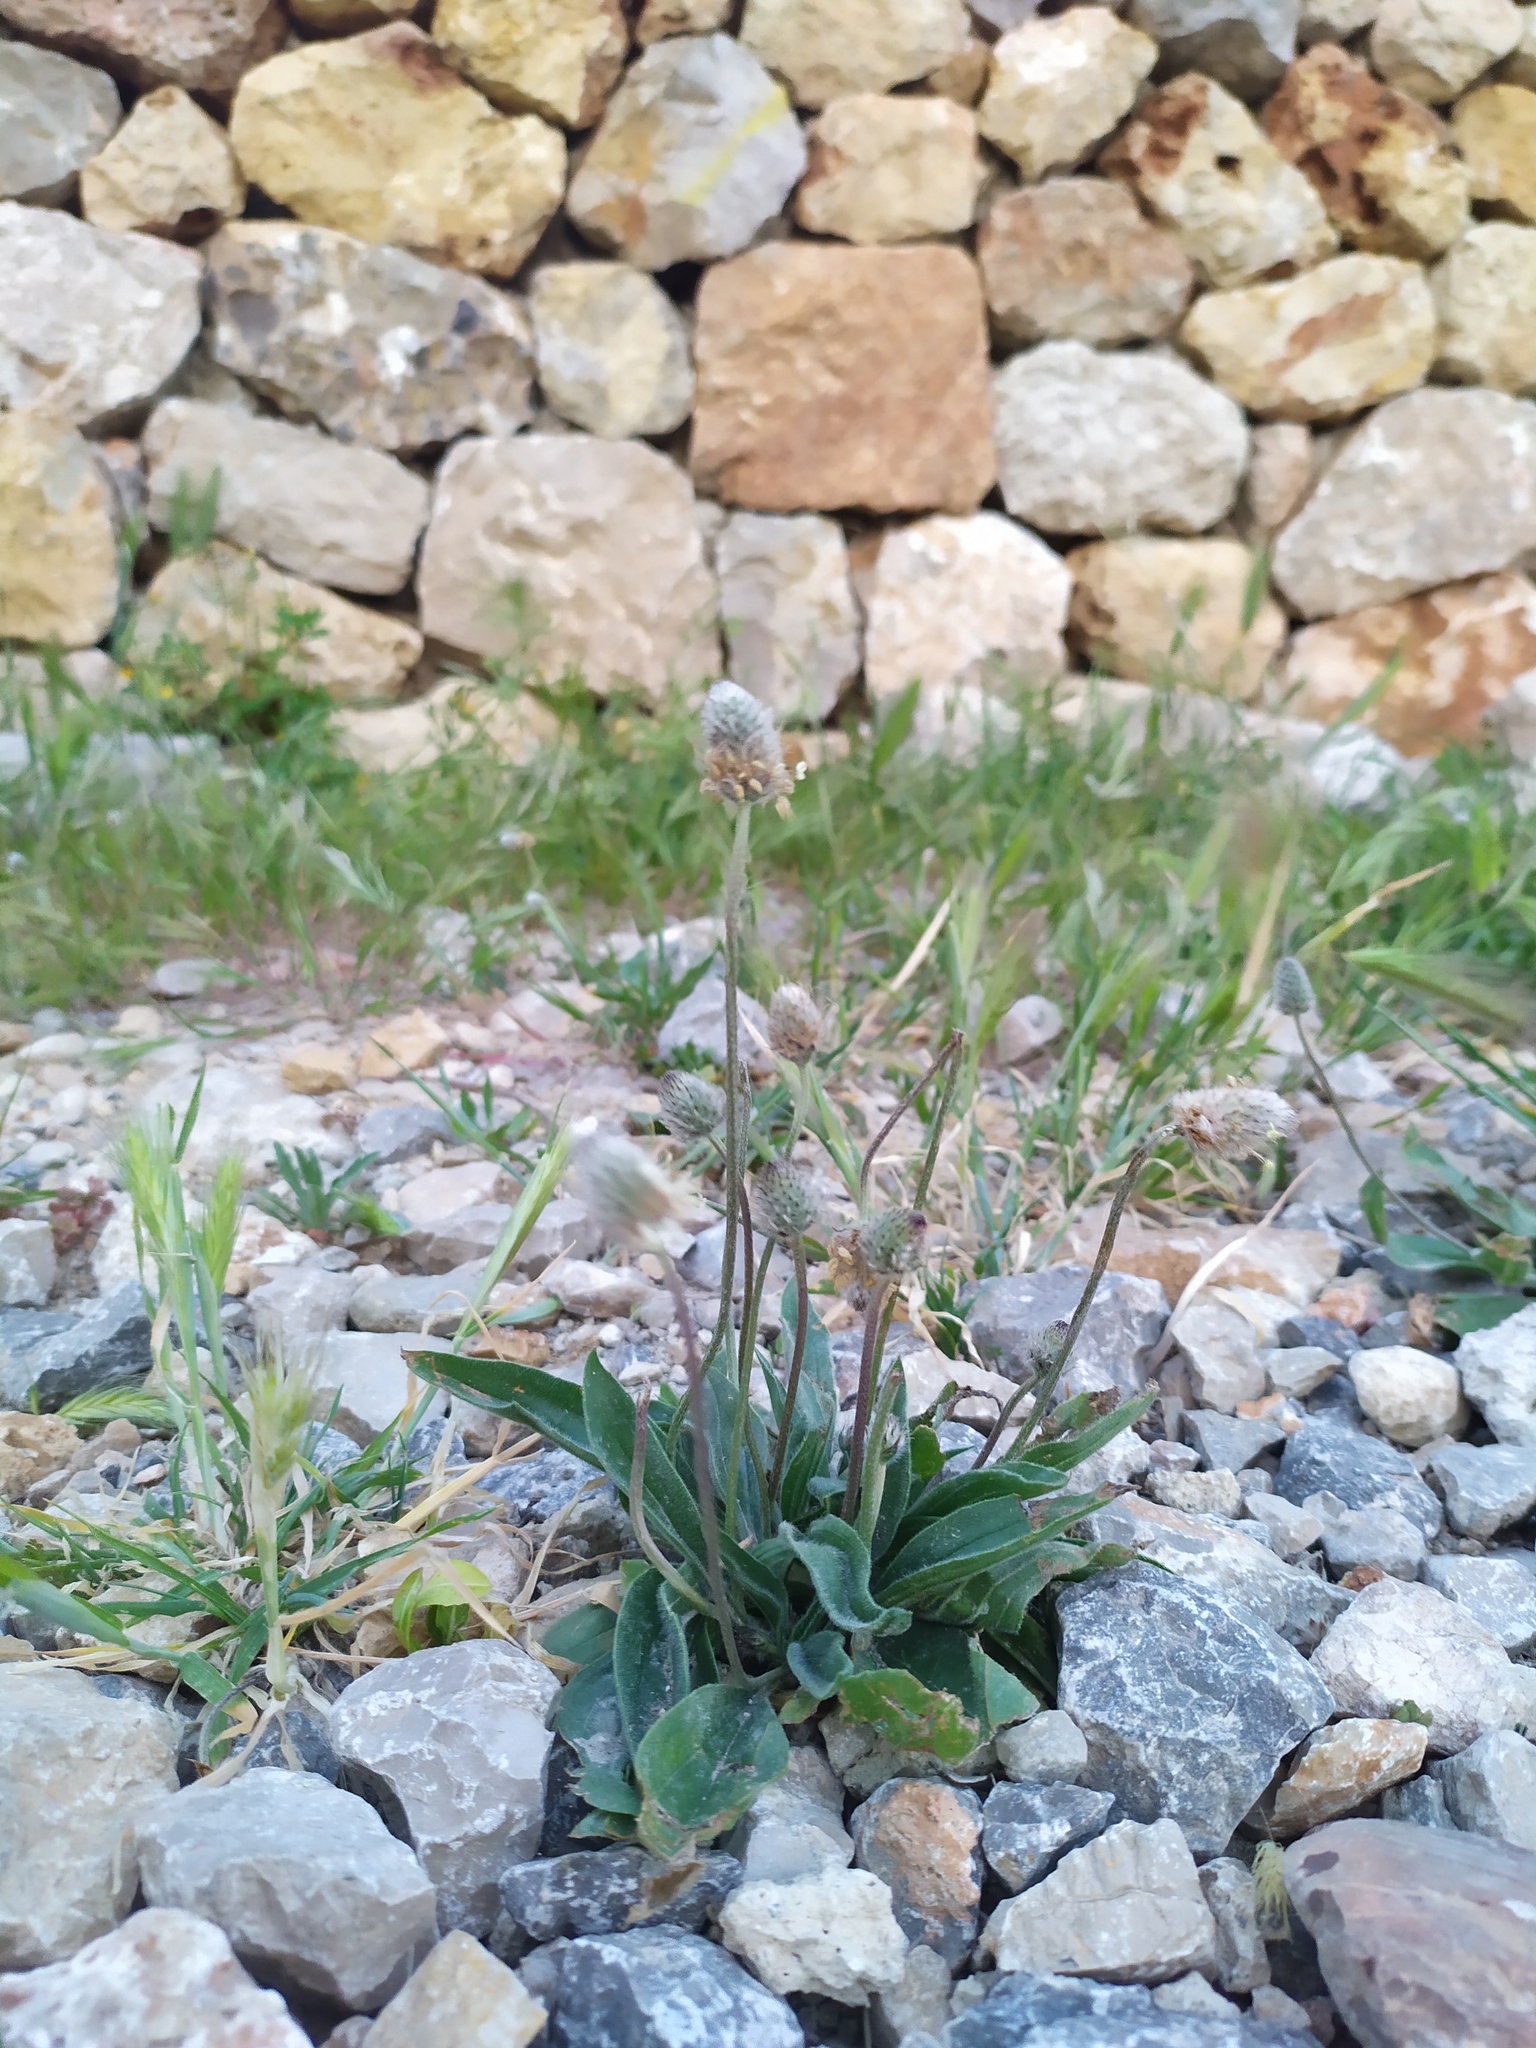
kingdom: Plantae
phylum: Tracheophyta
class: Magnoliopsida
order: Lamiales
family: Plantaginaceae
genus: Plantago
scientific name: Plantago lagopus
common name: Hare-foot plantain
